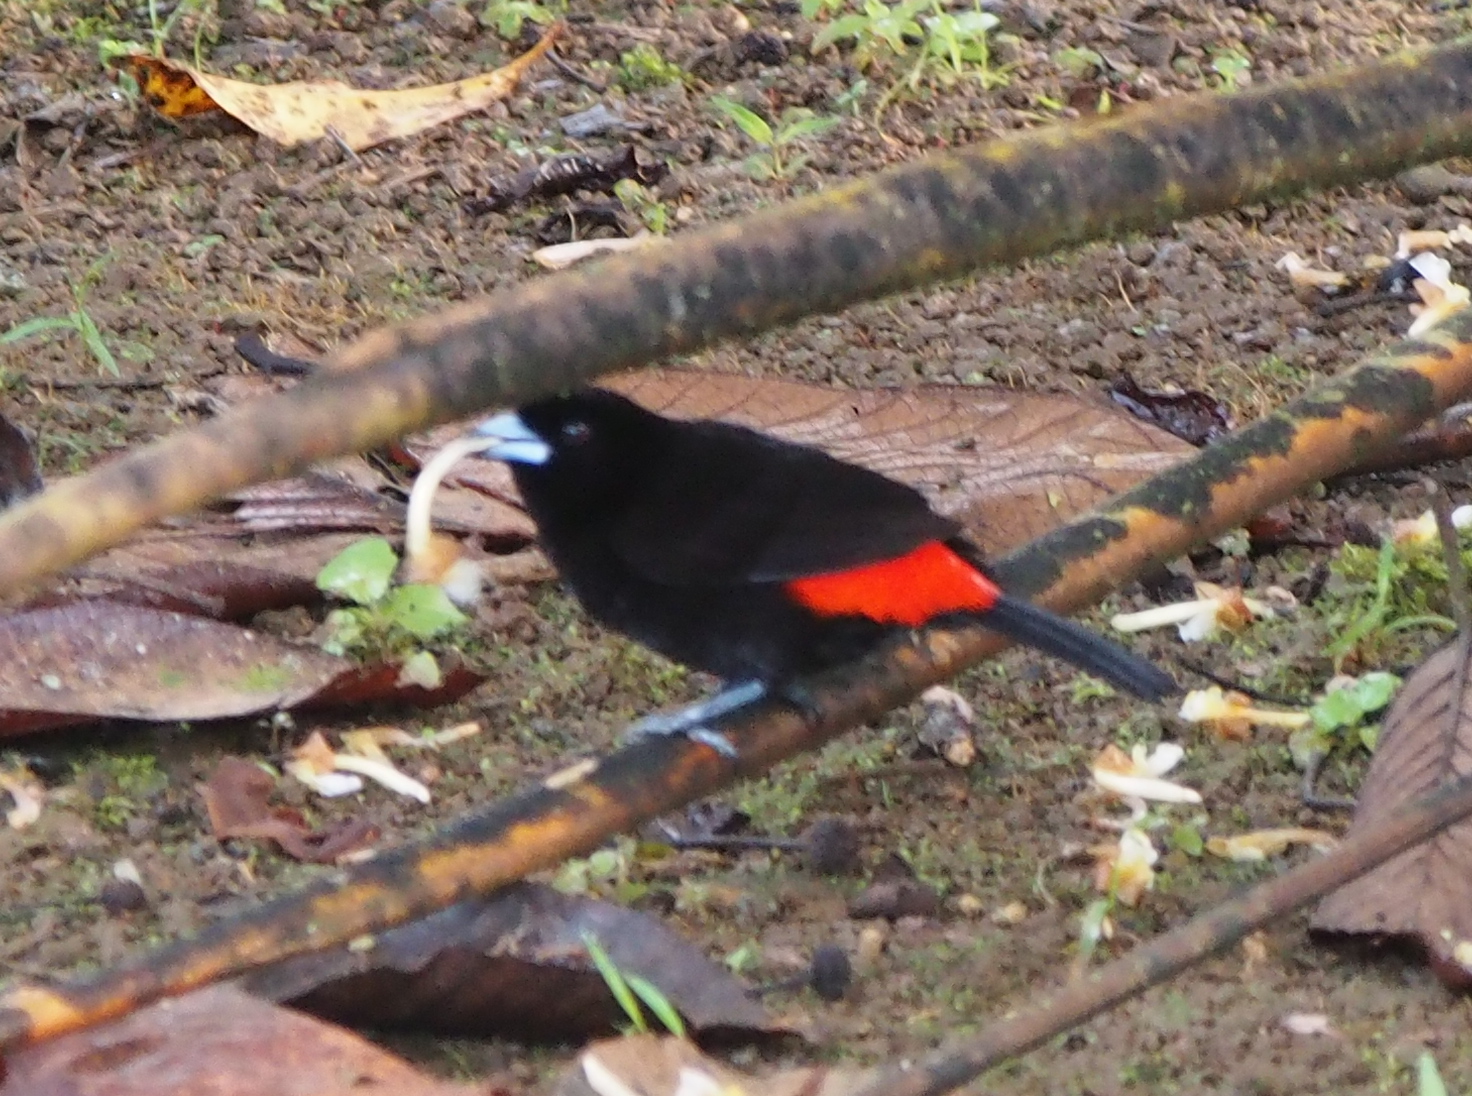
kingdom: Animalia
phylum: Chordata
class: Aves
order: Passeriformes
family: Thraupidae
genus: Ramphocelus
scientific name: Ramphocelus passerinii
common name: Passerini's tanager
